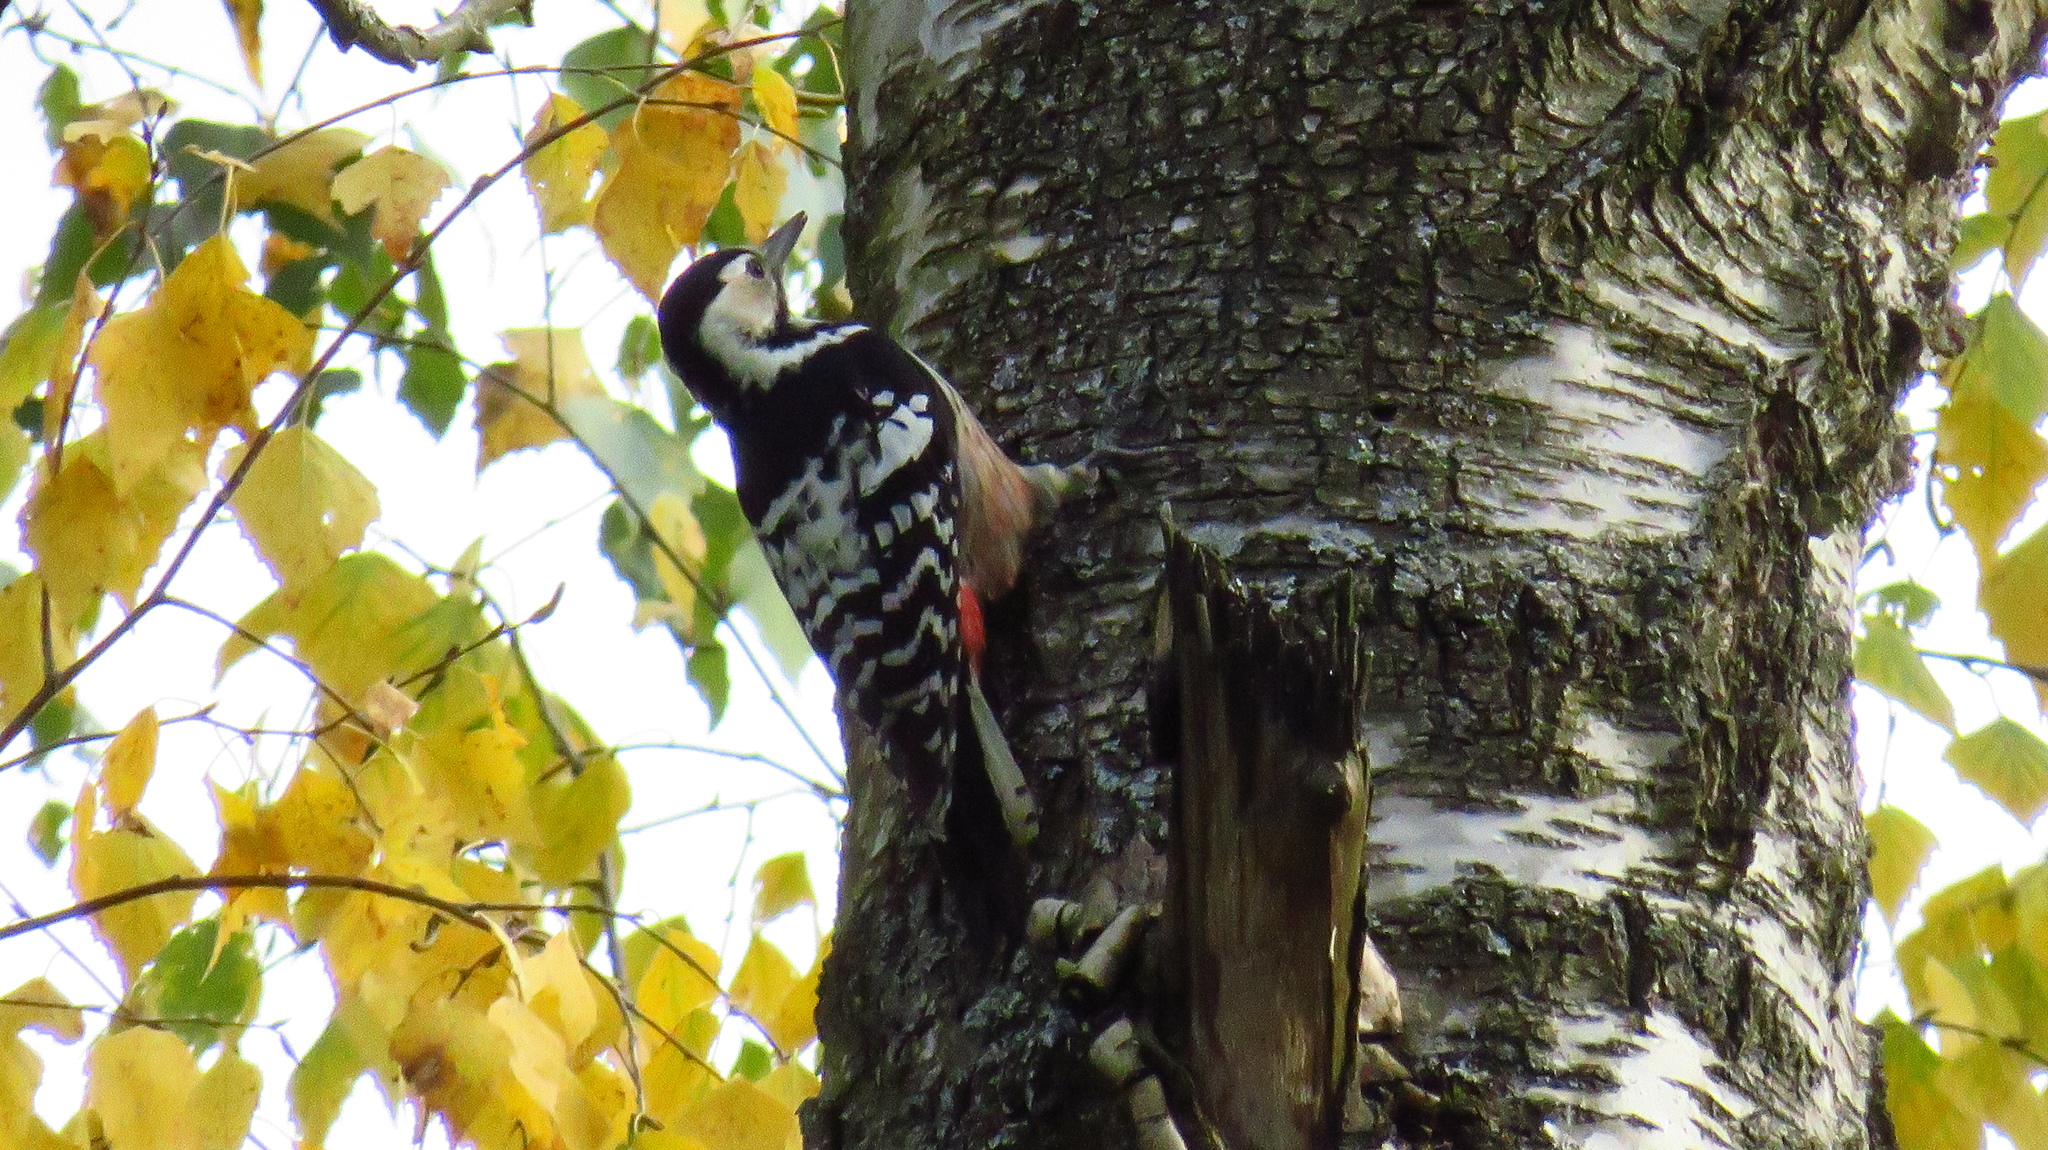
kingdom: Animalia
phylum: Chordata
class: Aves
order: Piciformes
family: Picidae
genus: Dendrocopos
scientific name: Dendrocopos leucotos
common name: White-backed woodpecker
